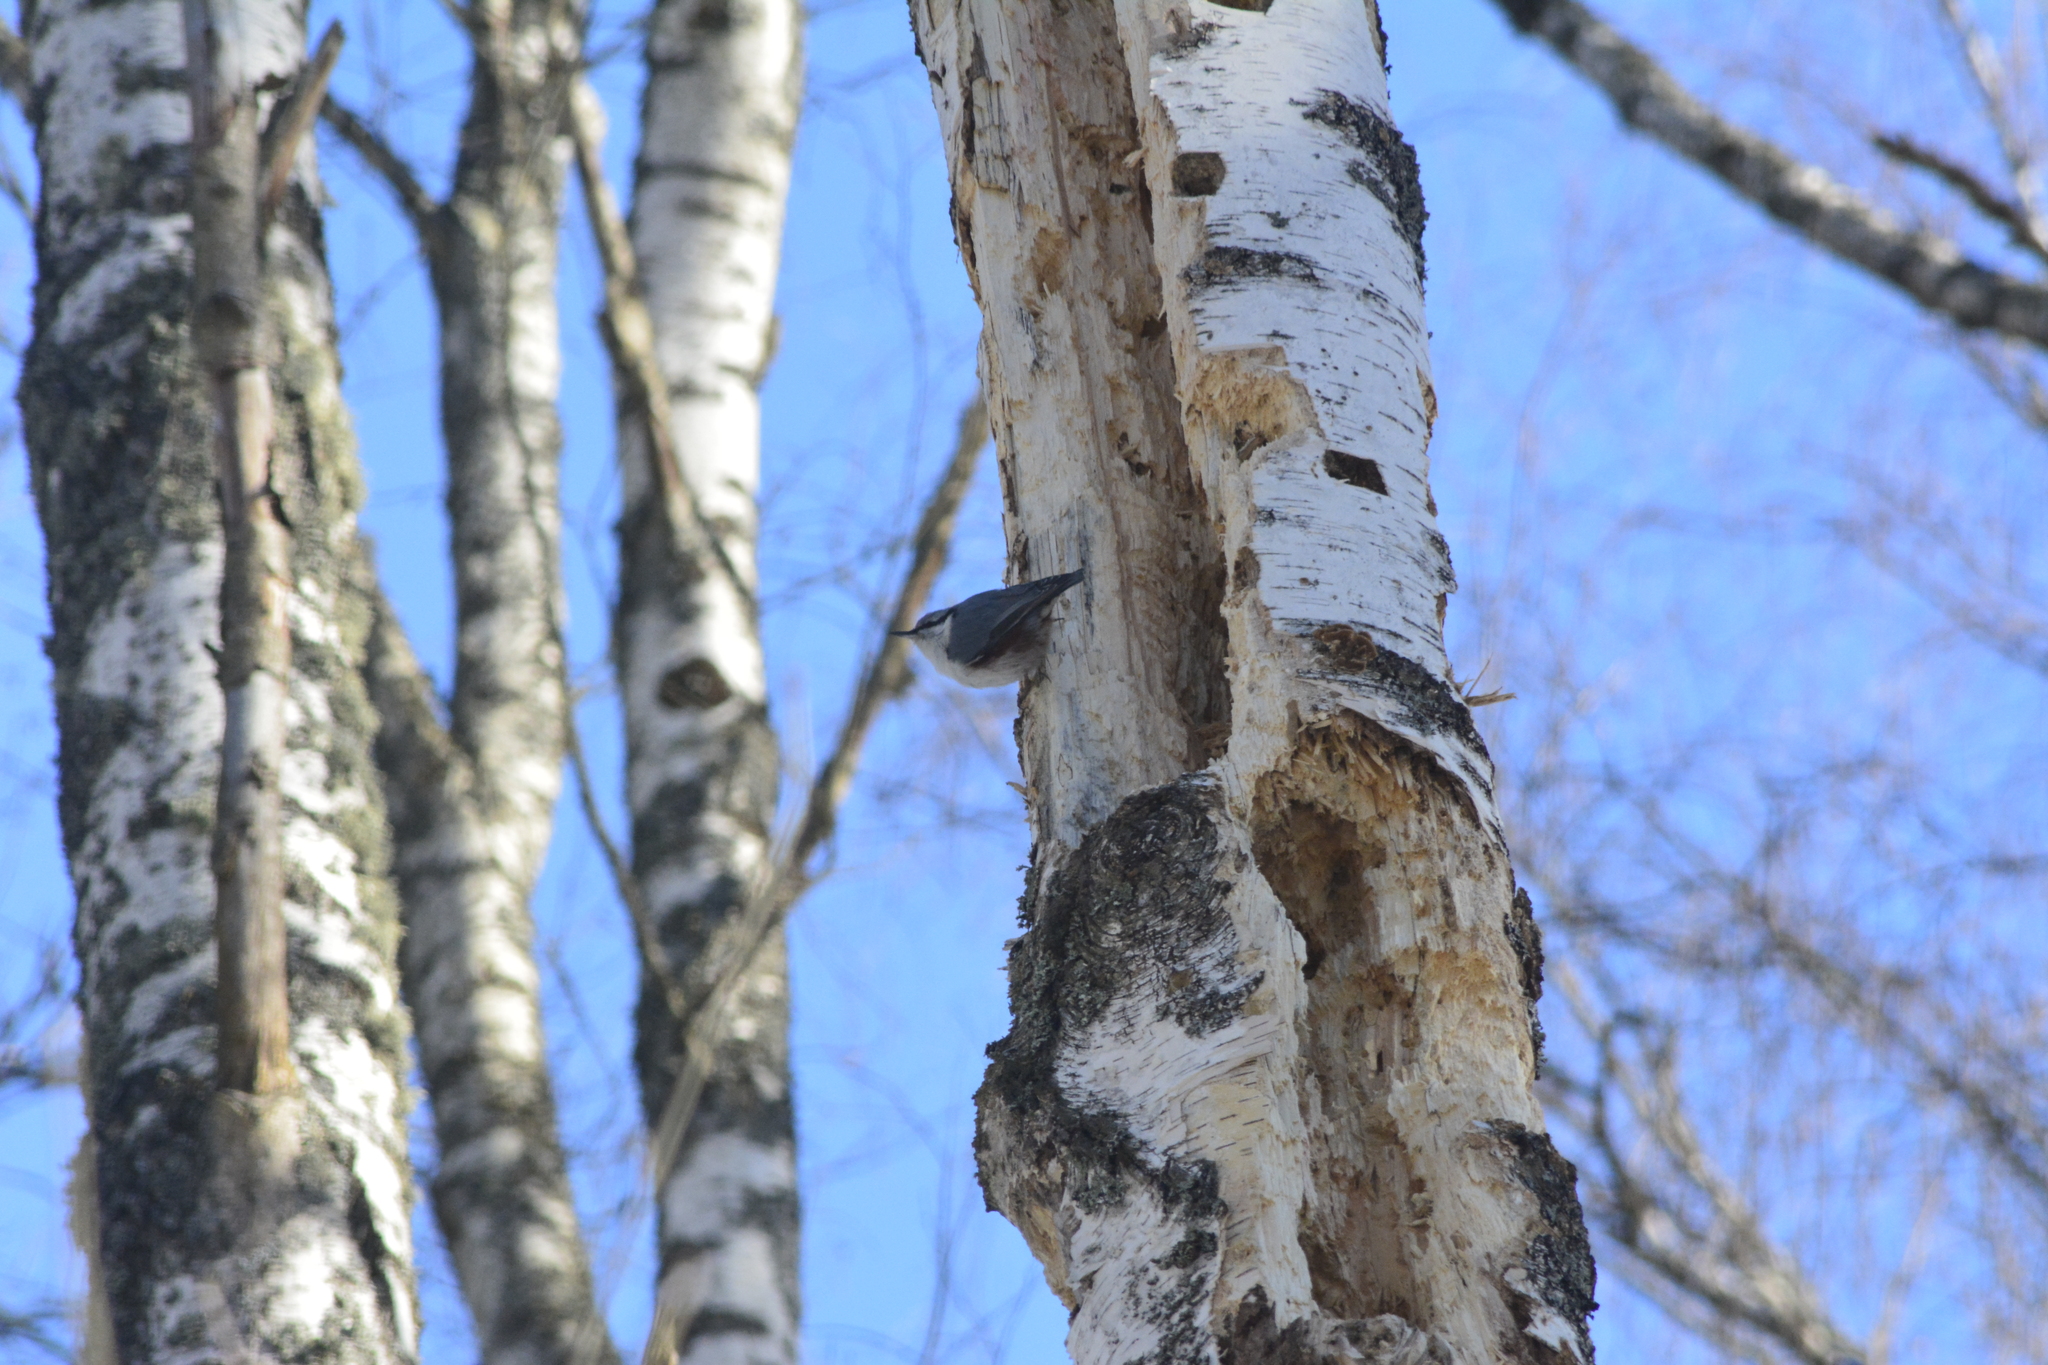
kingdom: Animalia
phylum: Chordata
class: Aves
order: Passeriformes
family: Sittidae
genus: Sitta
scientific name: Sitta europaea
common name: Eurasian nuthatch
